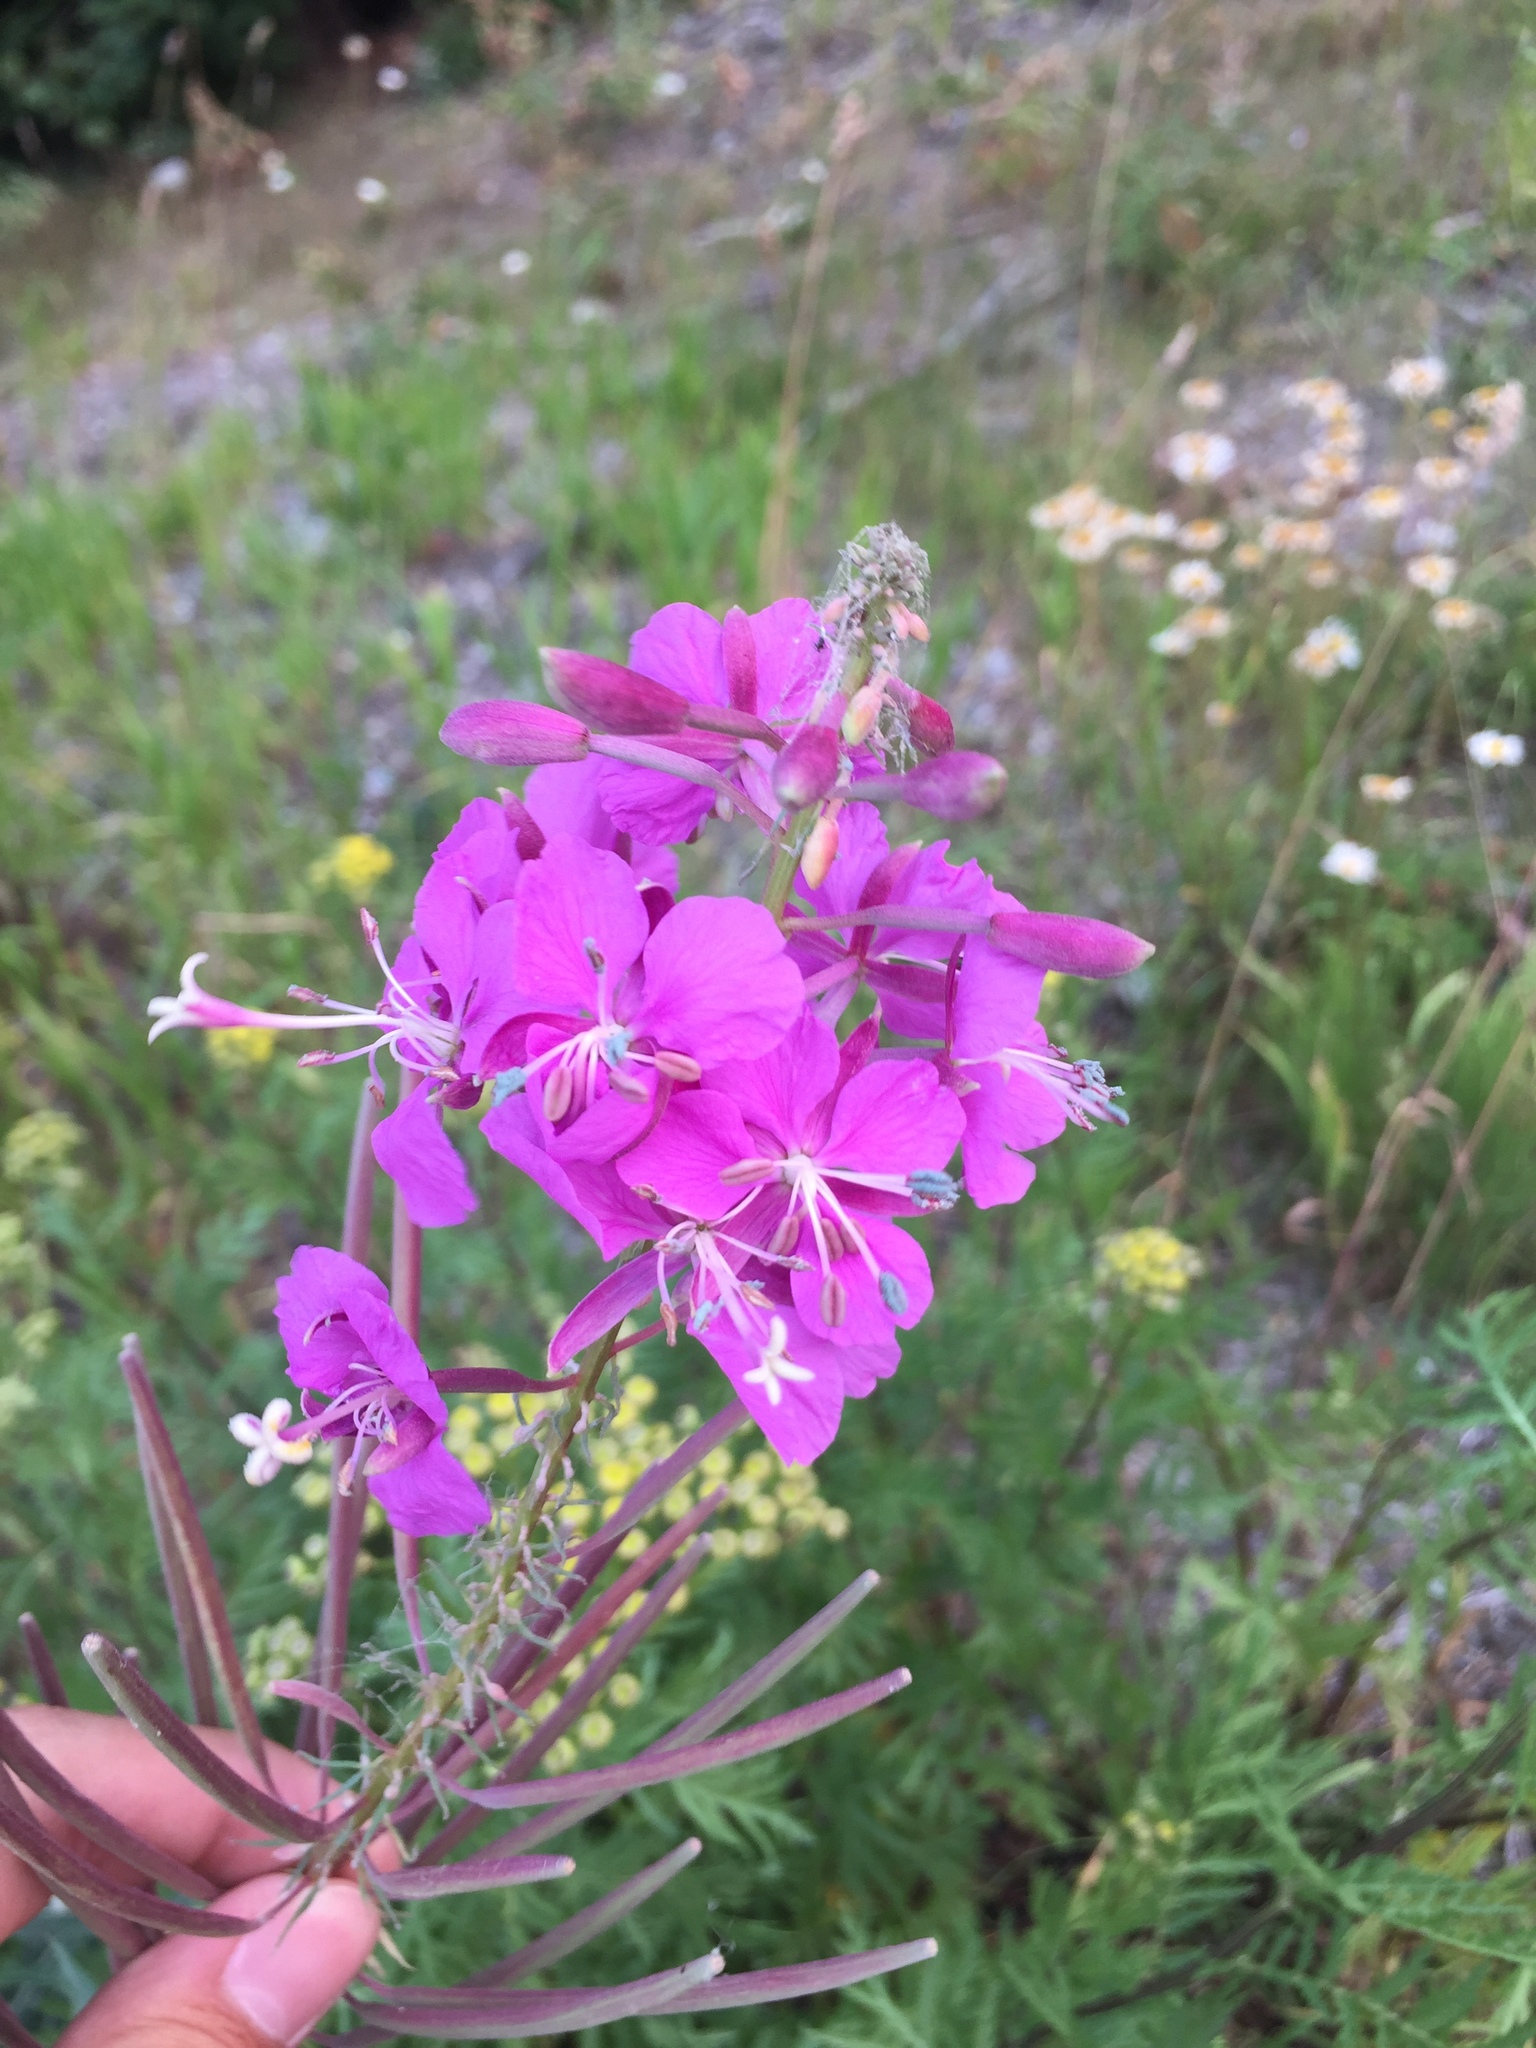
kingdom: Plantae
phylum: Tracheophyta
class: Magnoliopsida
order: Myrtales
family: Onagraceae
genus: Chamaenerion
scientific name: Chamaenerion angustifolium
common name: Fireweed
